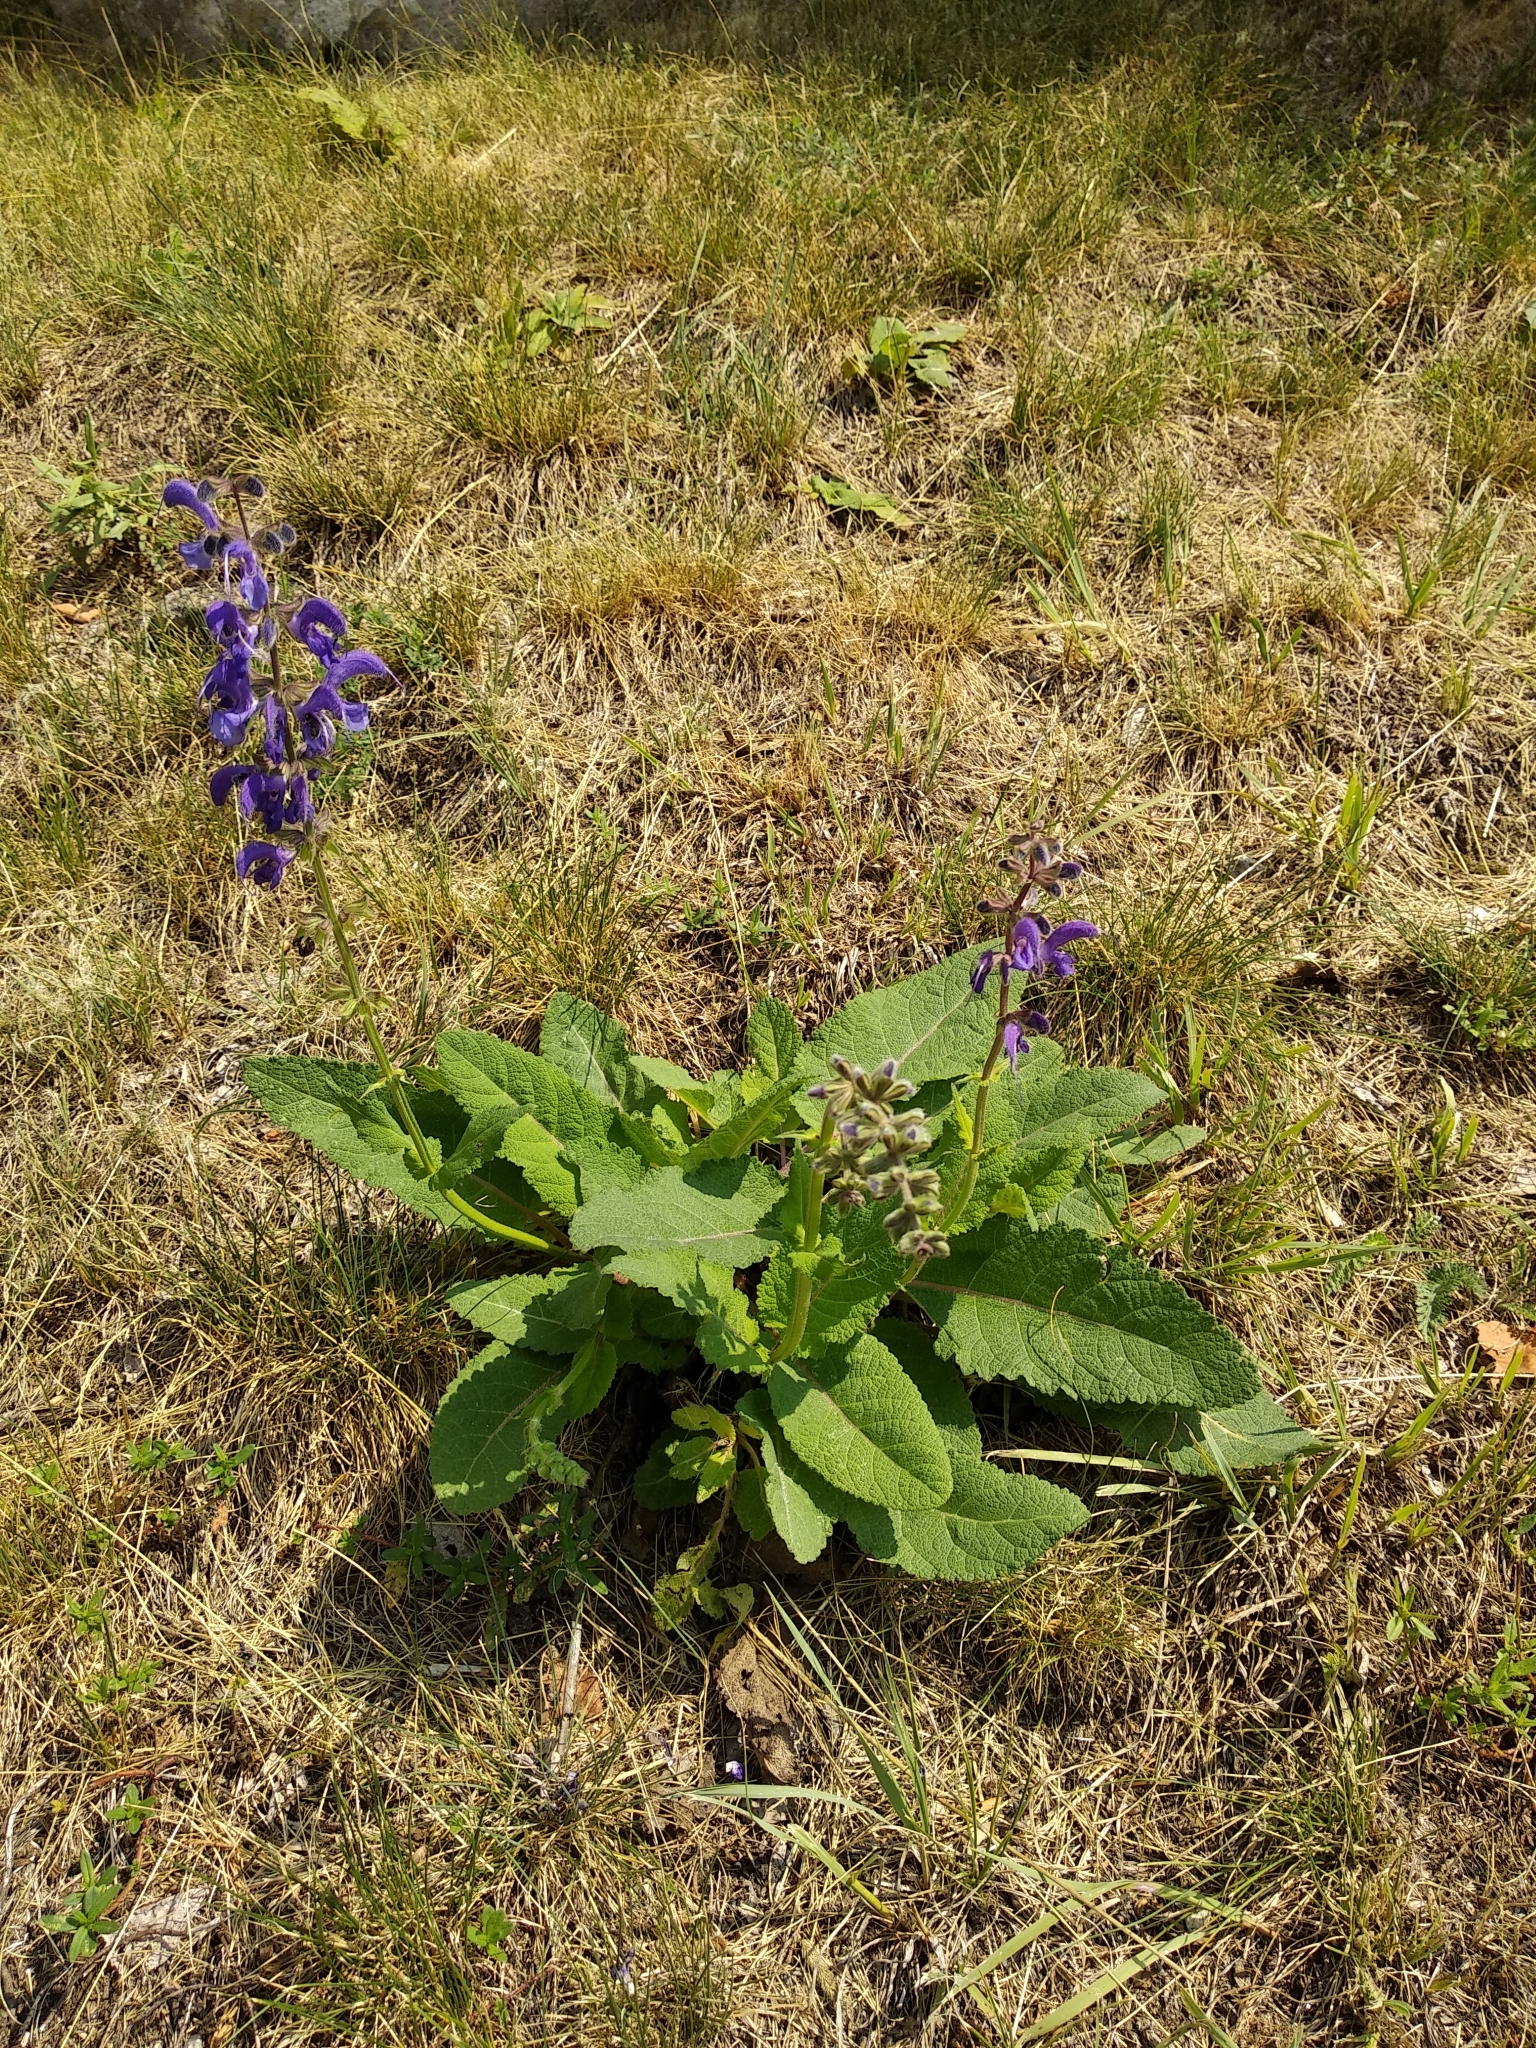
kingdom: Plantae
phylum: Tracheophyta
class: Magnoliopsida
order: Lamiales
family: Lamiaceae
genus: Salvia
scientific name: Salvia pratensis
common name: Meadow sage
